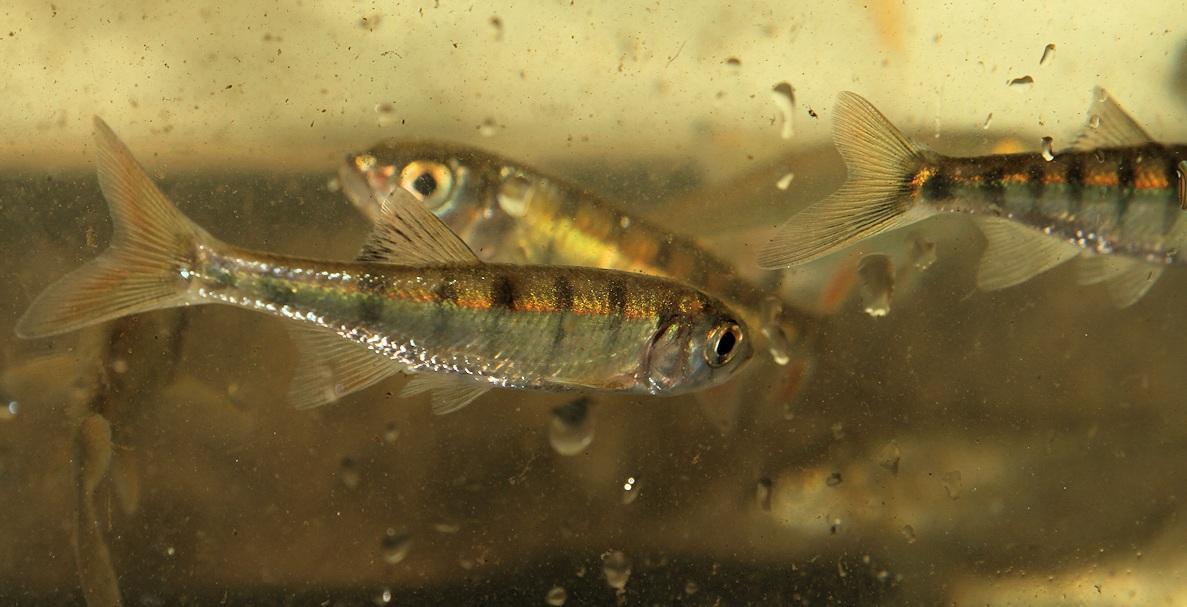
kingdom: Animalia
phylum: Chordata
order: Cypriniformes
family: Cyprinidae
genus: Opsaridium
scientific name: Opsaridium peringueyi
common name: Southern barred minnow
